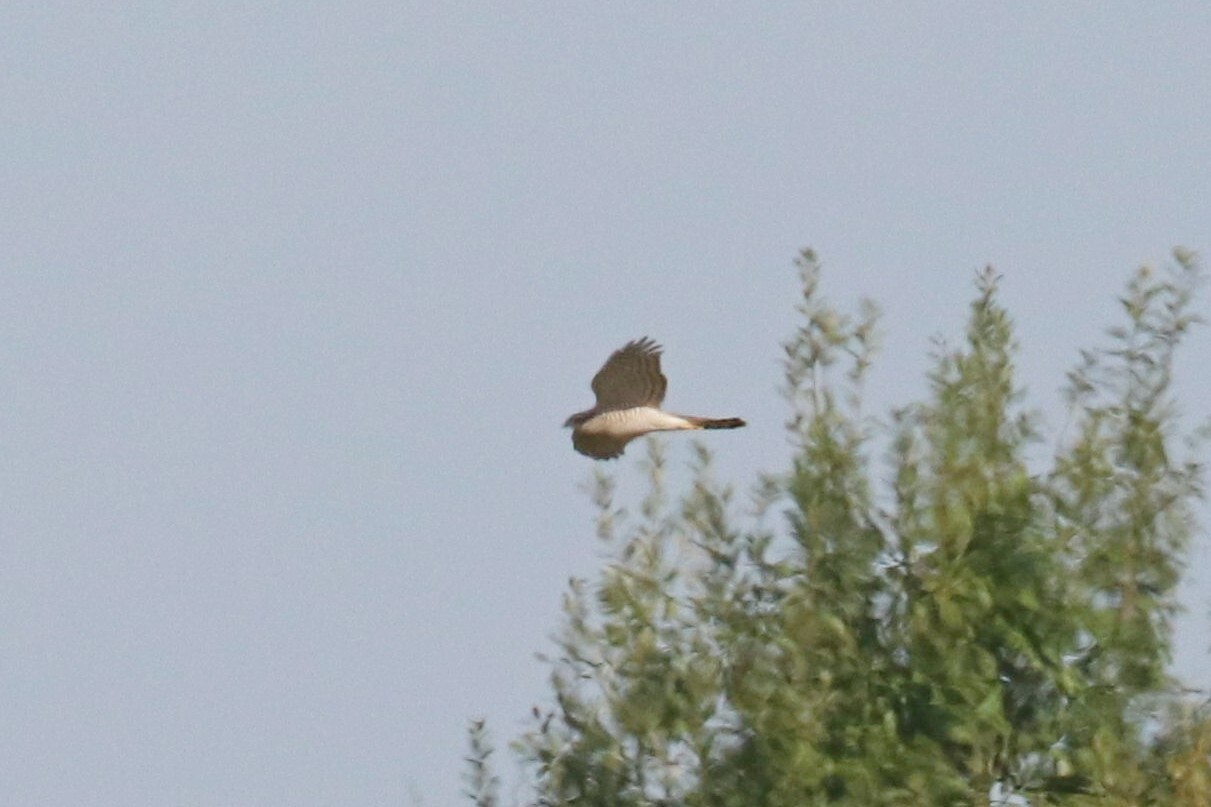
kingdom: Animalia
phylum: Chordata
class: Aves
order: Accipitriformes
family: Accipitridae
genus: Accipiter
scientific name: Accipiter nisus
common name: Eurasian sparrowhawk
